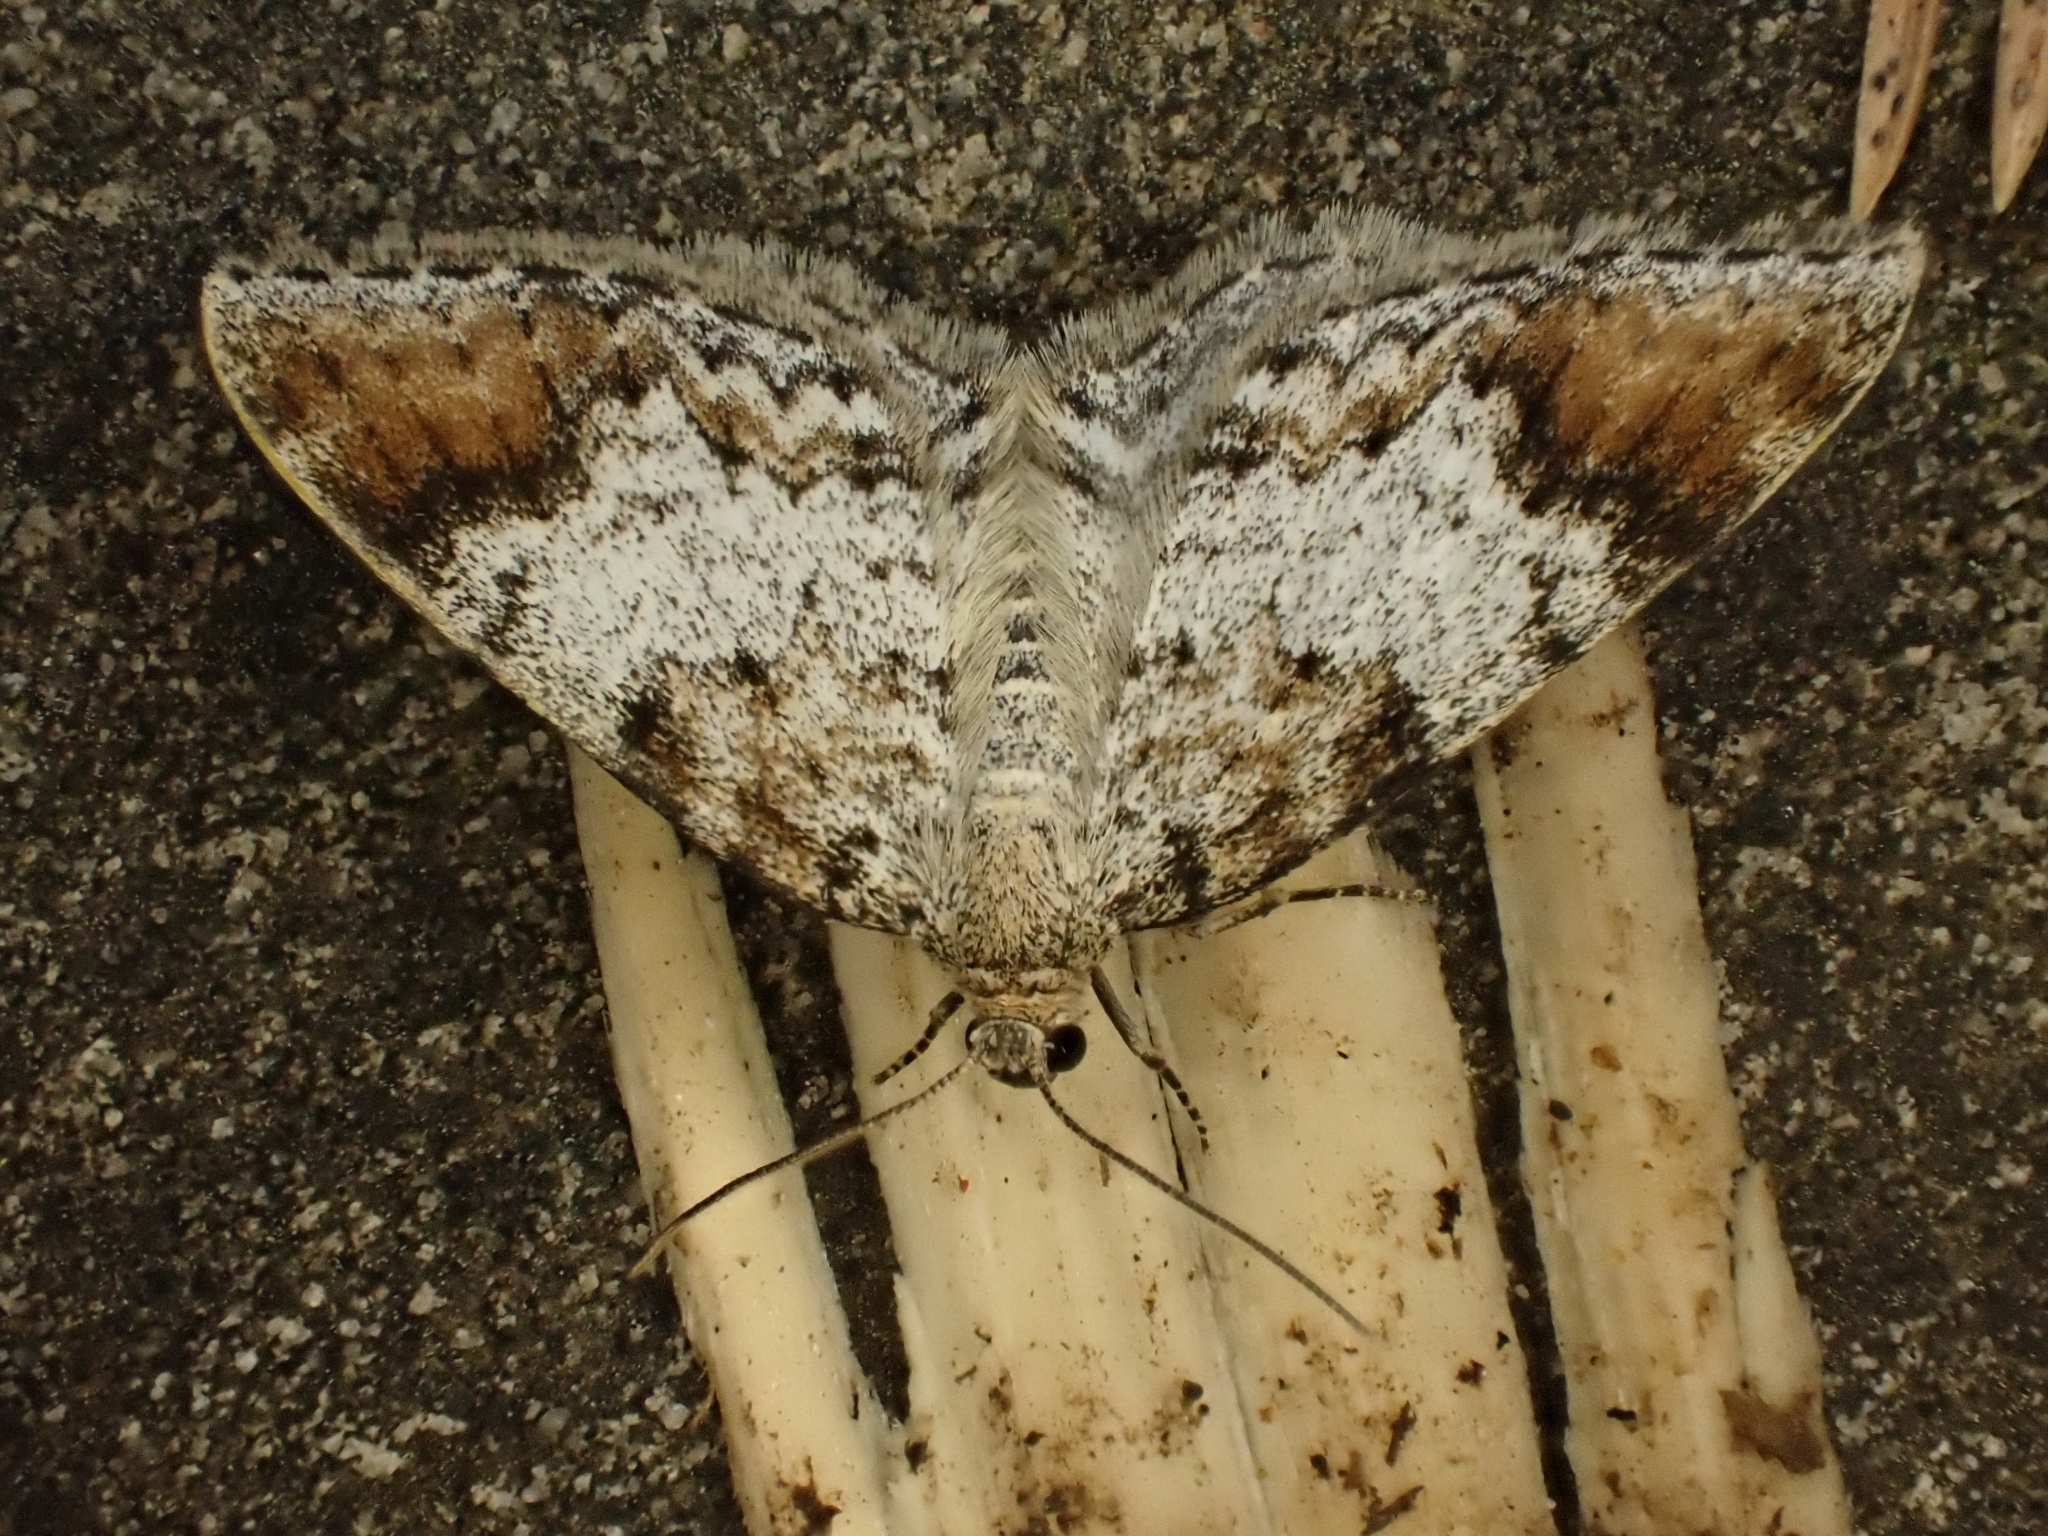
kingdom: Animalia
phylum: Arthropoda
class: Insecta
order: Lepidoptera
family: Geometridae
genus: Venusia
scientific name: Venusia blomeri
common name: Blomer's rivulet
